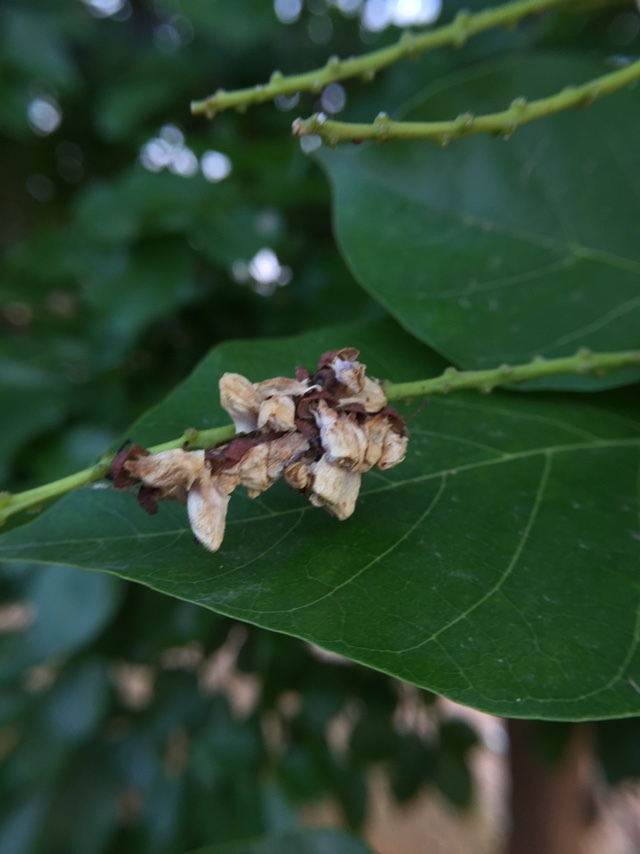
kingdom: Plantae
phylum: Tracheophyta
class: Magnoliopsida
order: Fabales
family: Fabaceae
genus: Pongamia
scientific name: Pongamia pinnata
